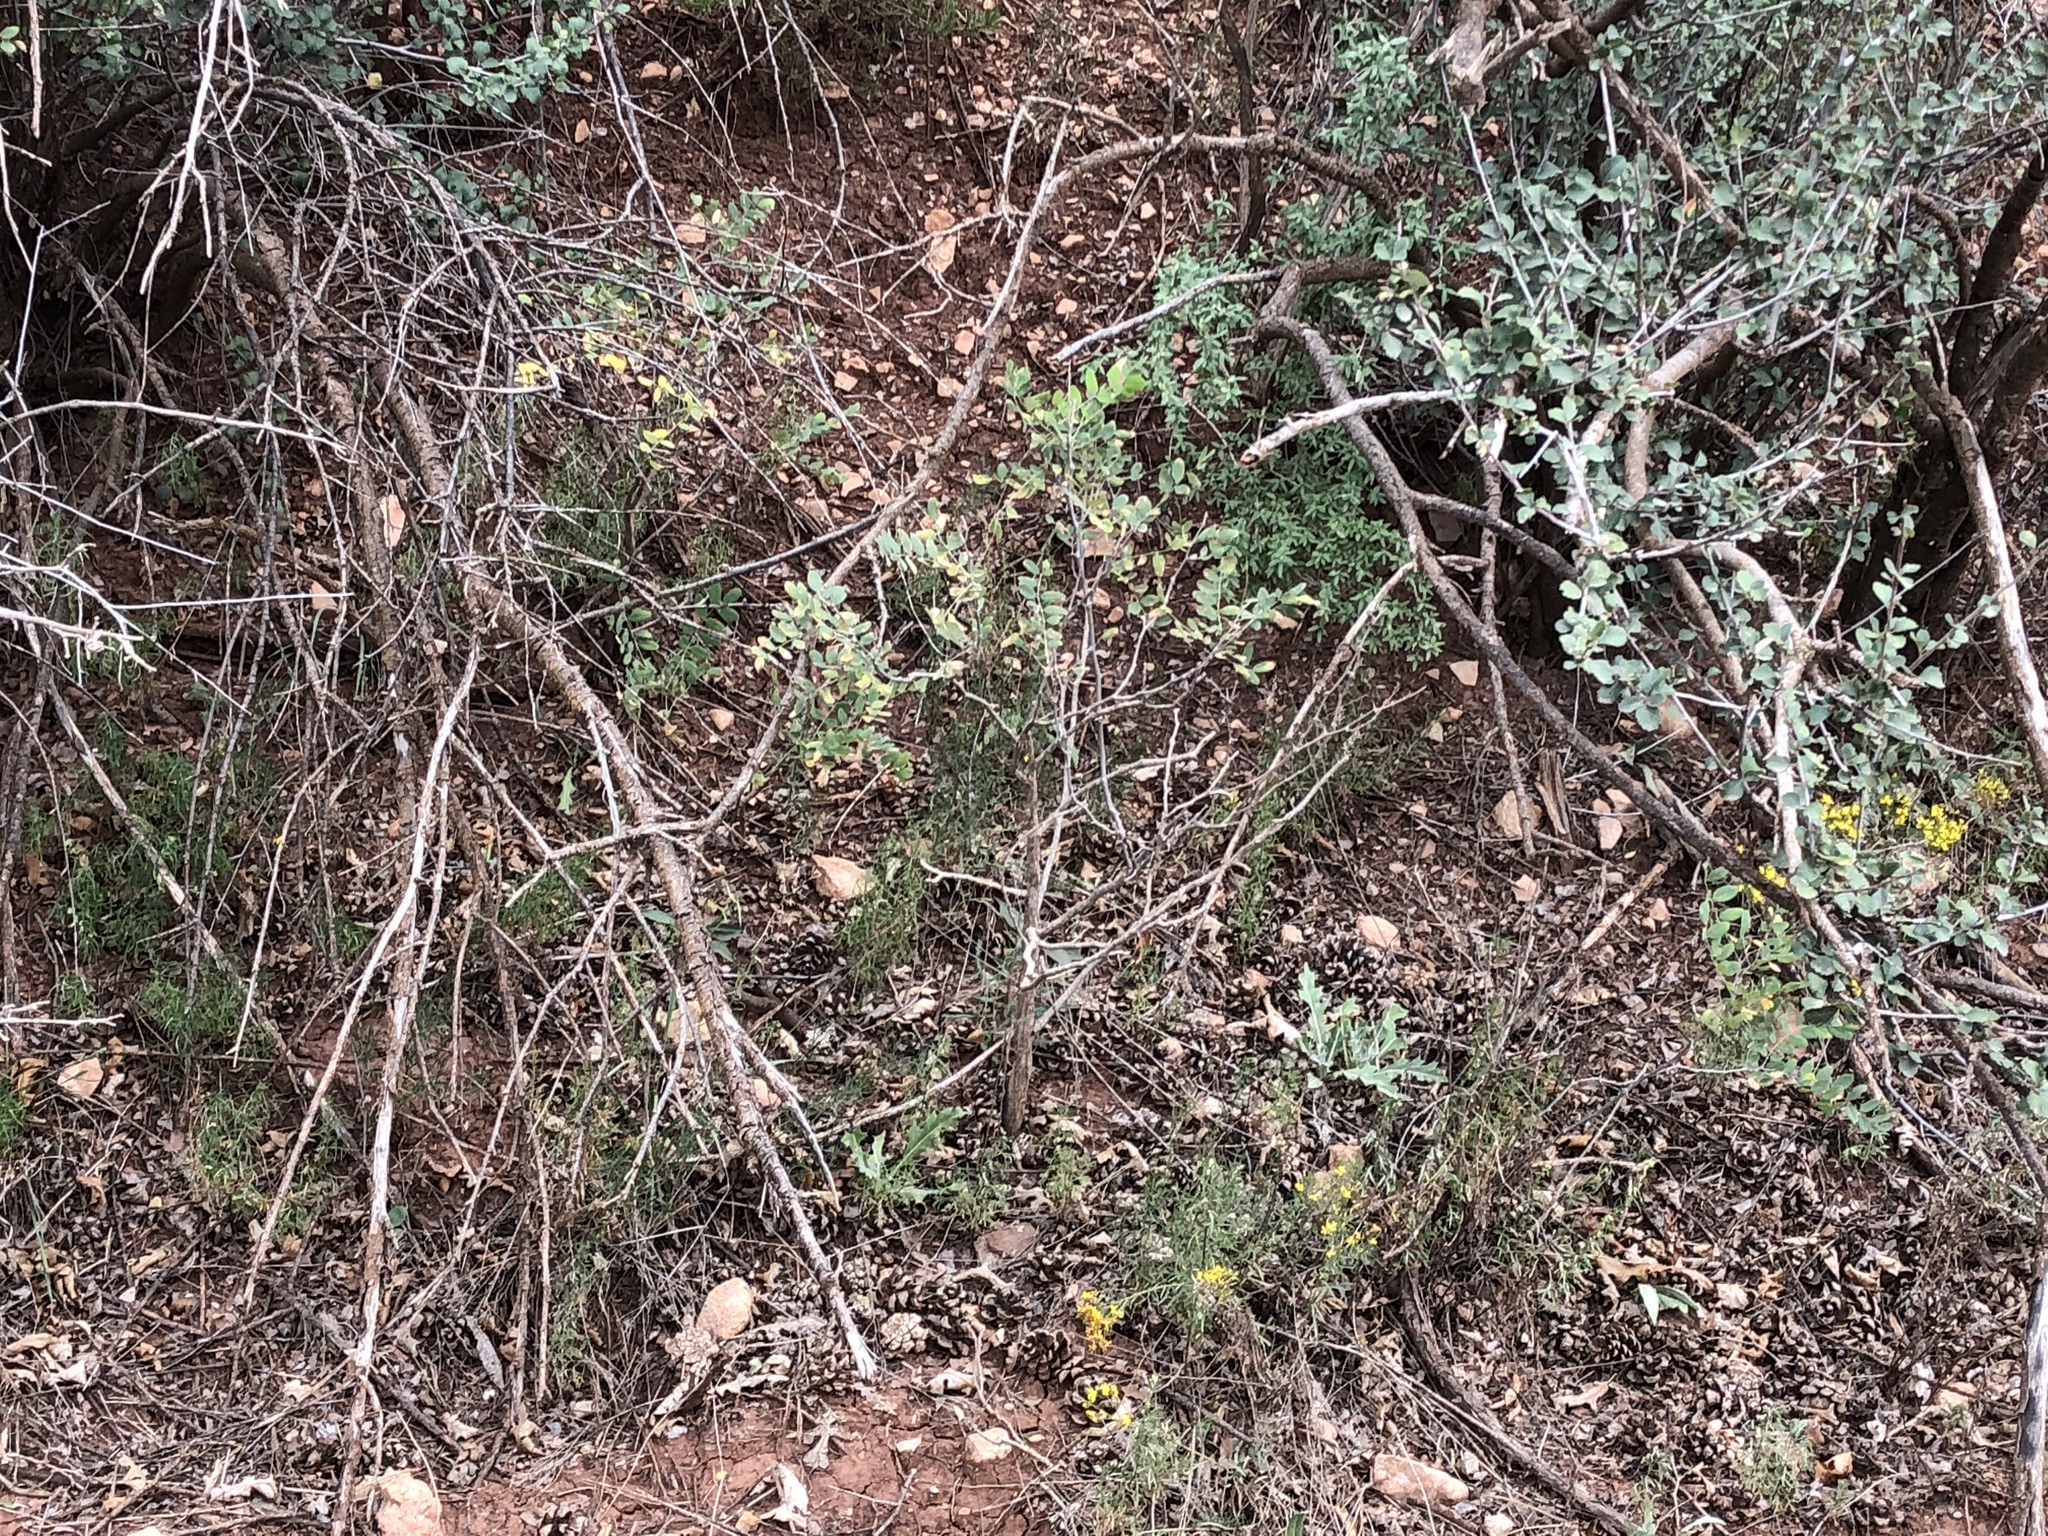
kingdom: Plantae
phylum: Tracheophyta
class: Magnoliopsida
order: Fabales
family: Fabaceae
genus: Robinia
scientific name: Robinia neomexicana
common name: New mexico locust
